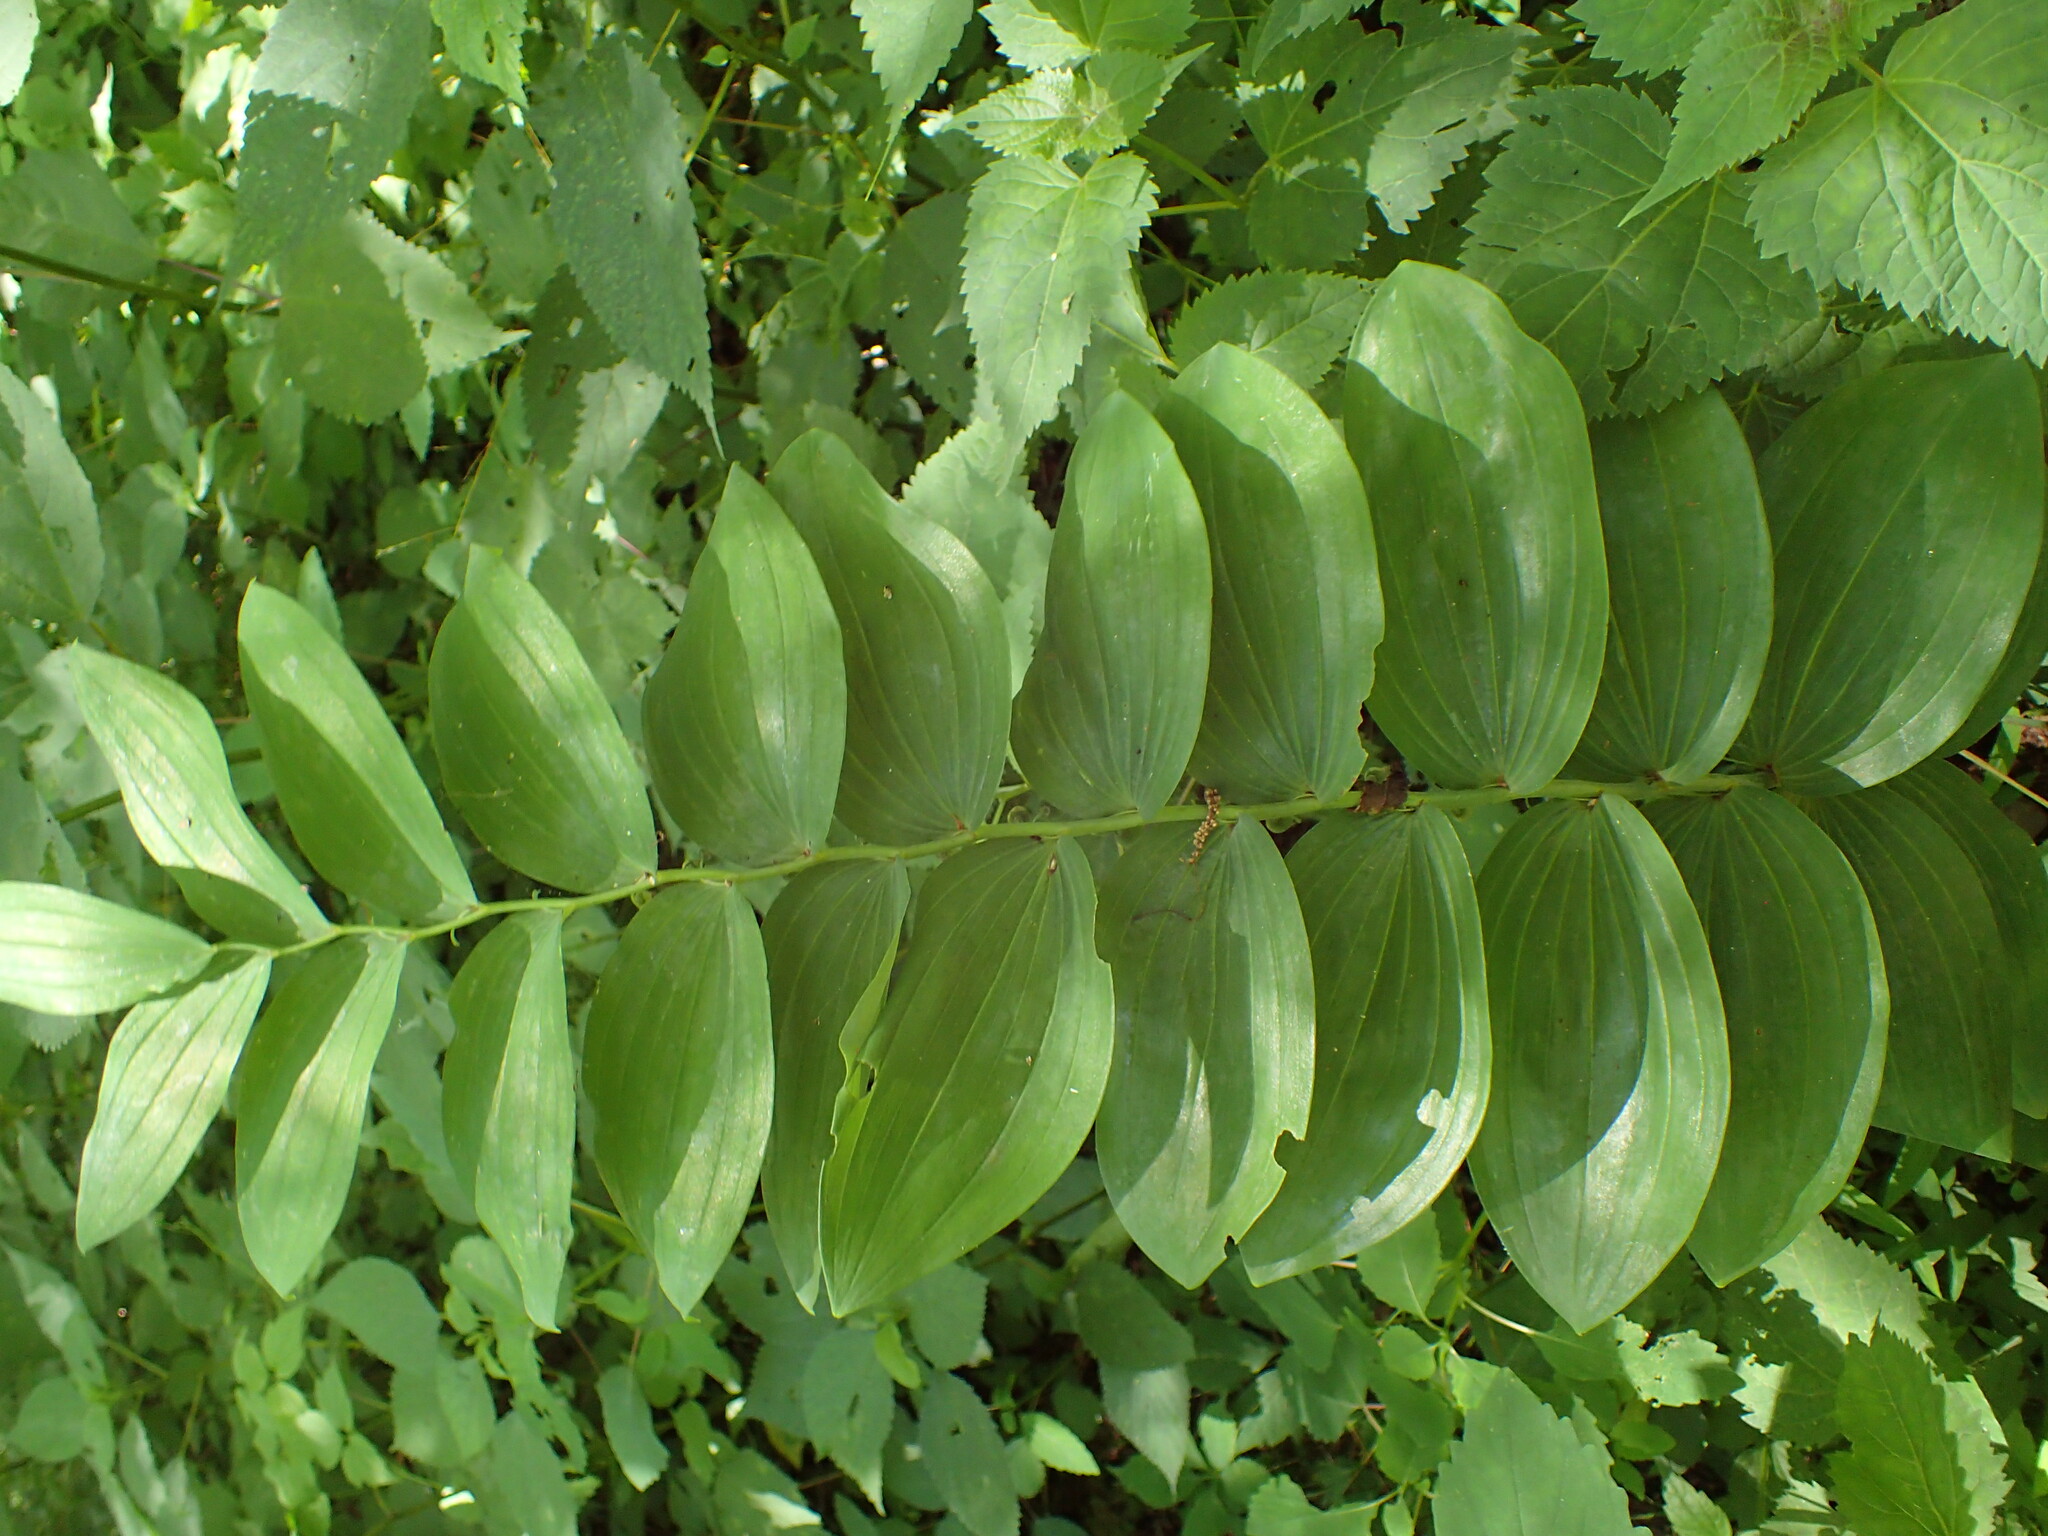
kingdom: Plantae
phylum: Tracheophyta
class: Liliopsida
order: Asparagales
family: Asparagaceae
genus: Polygonatum
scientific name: Polygonatum biflorum
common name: American solomon's-seal
